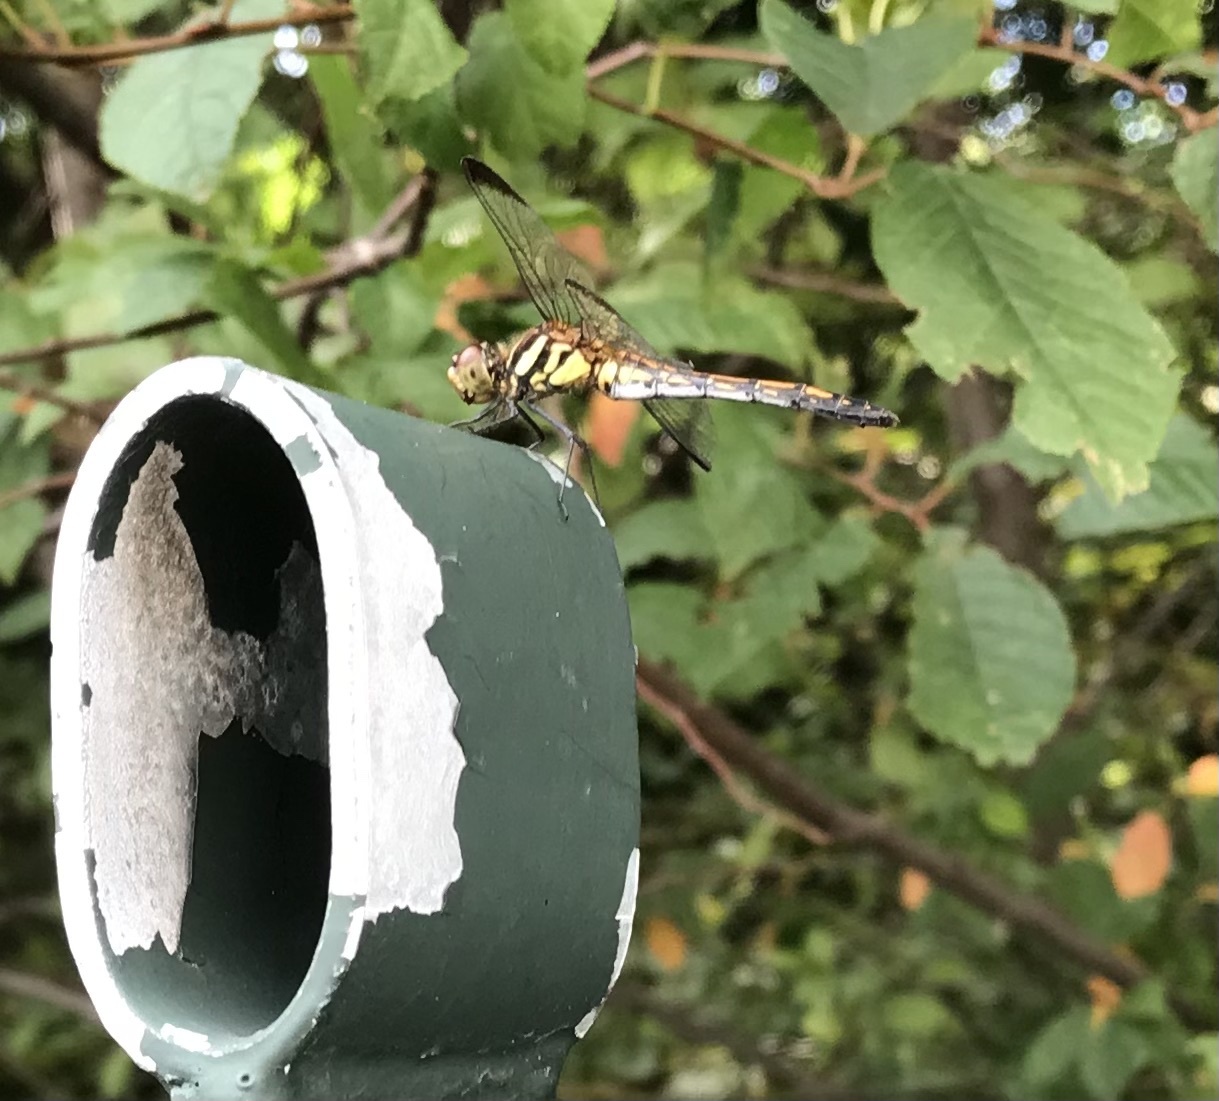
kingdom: Animalia
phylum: Arthropoda
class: Insecta
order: Odonata
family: Libellulidae
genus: Sympetrum
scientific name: Sympetrum infuscatum
